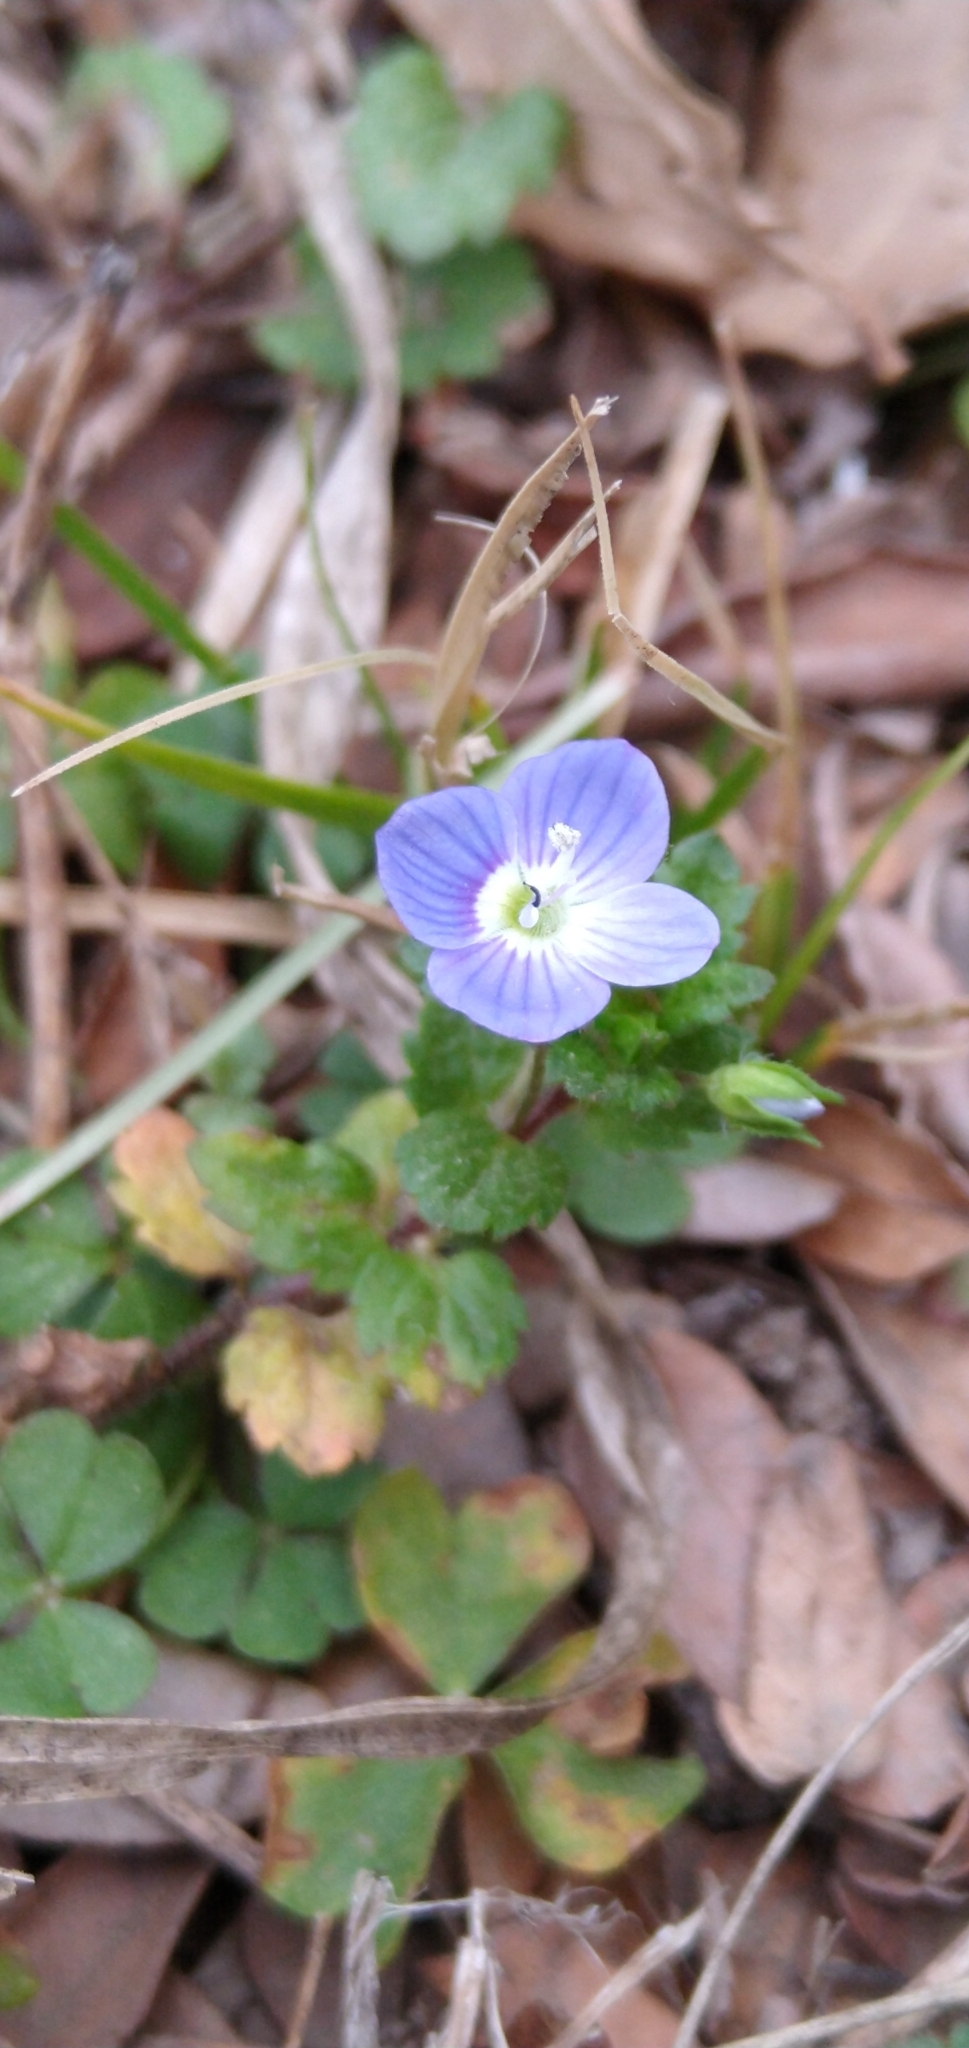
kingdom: Plantae
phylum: Tracheophyta
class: Magnoliopsida
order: Lamiales
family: Plantaginaceae
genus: Veronica
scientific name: Veronica persica
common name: Common field-speedwell
